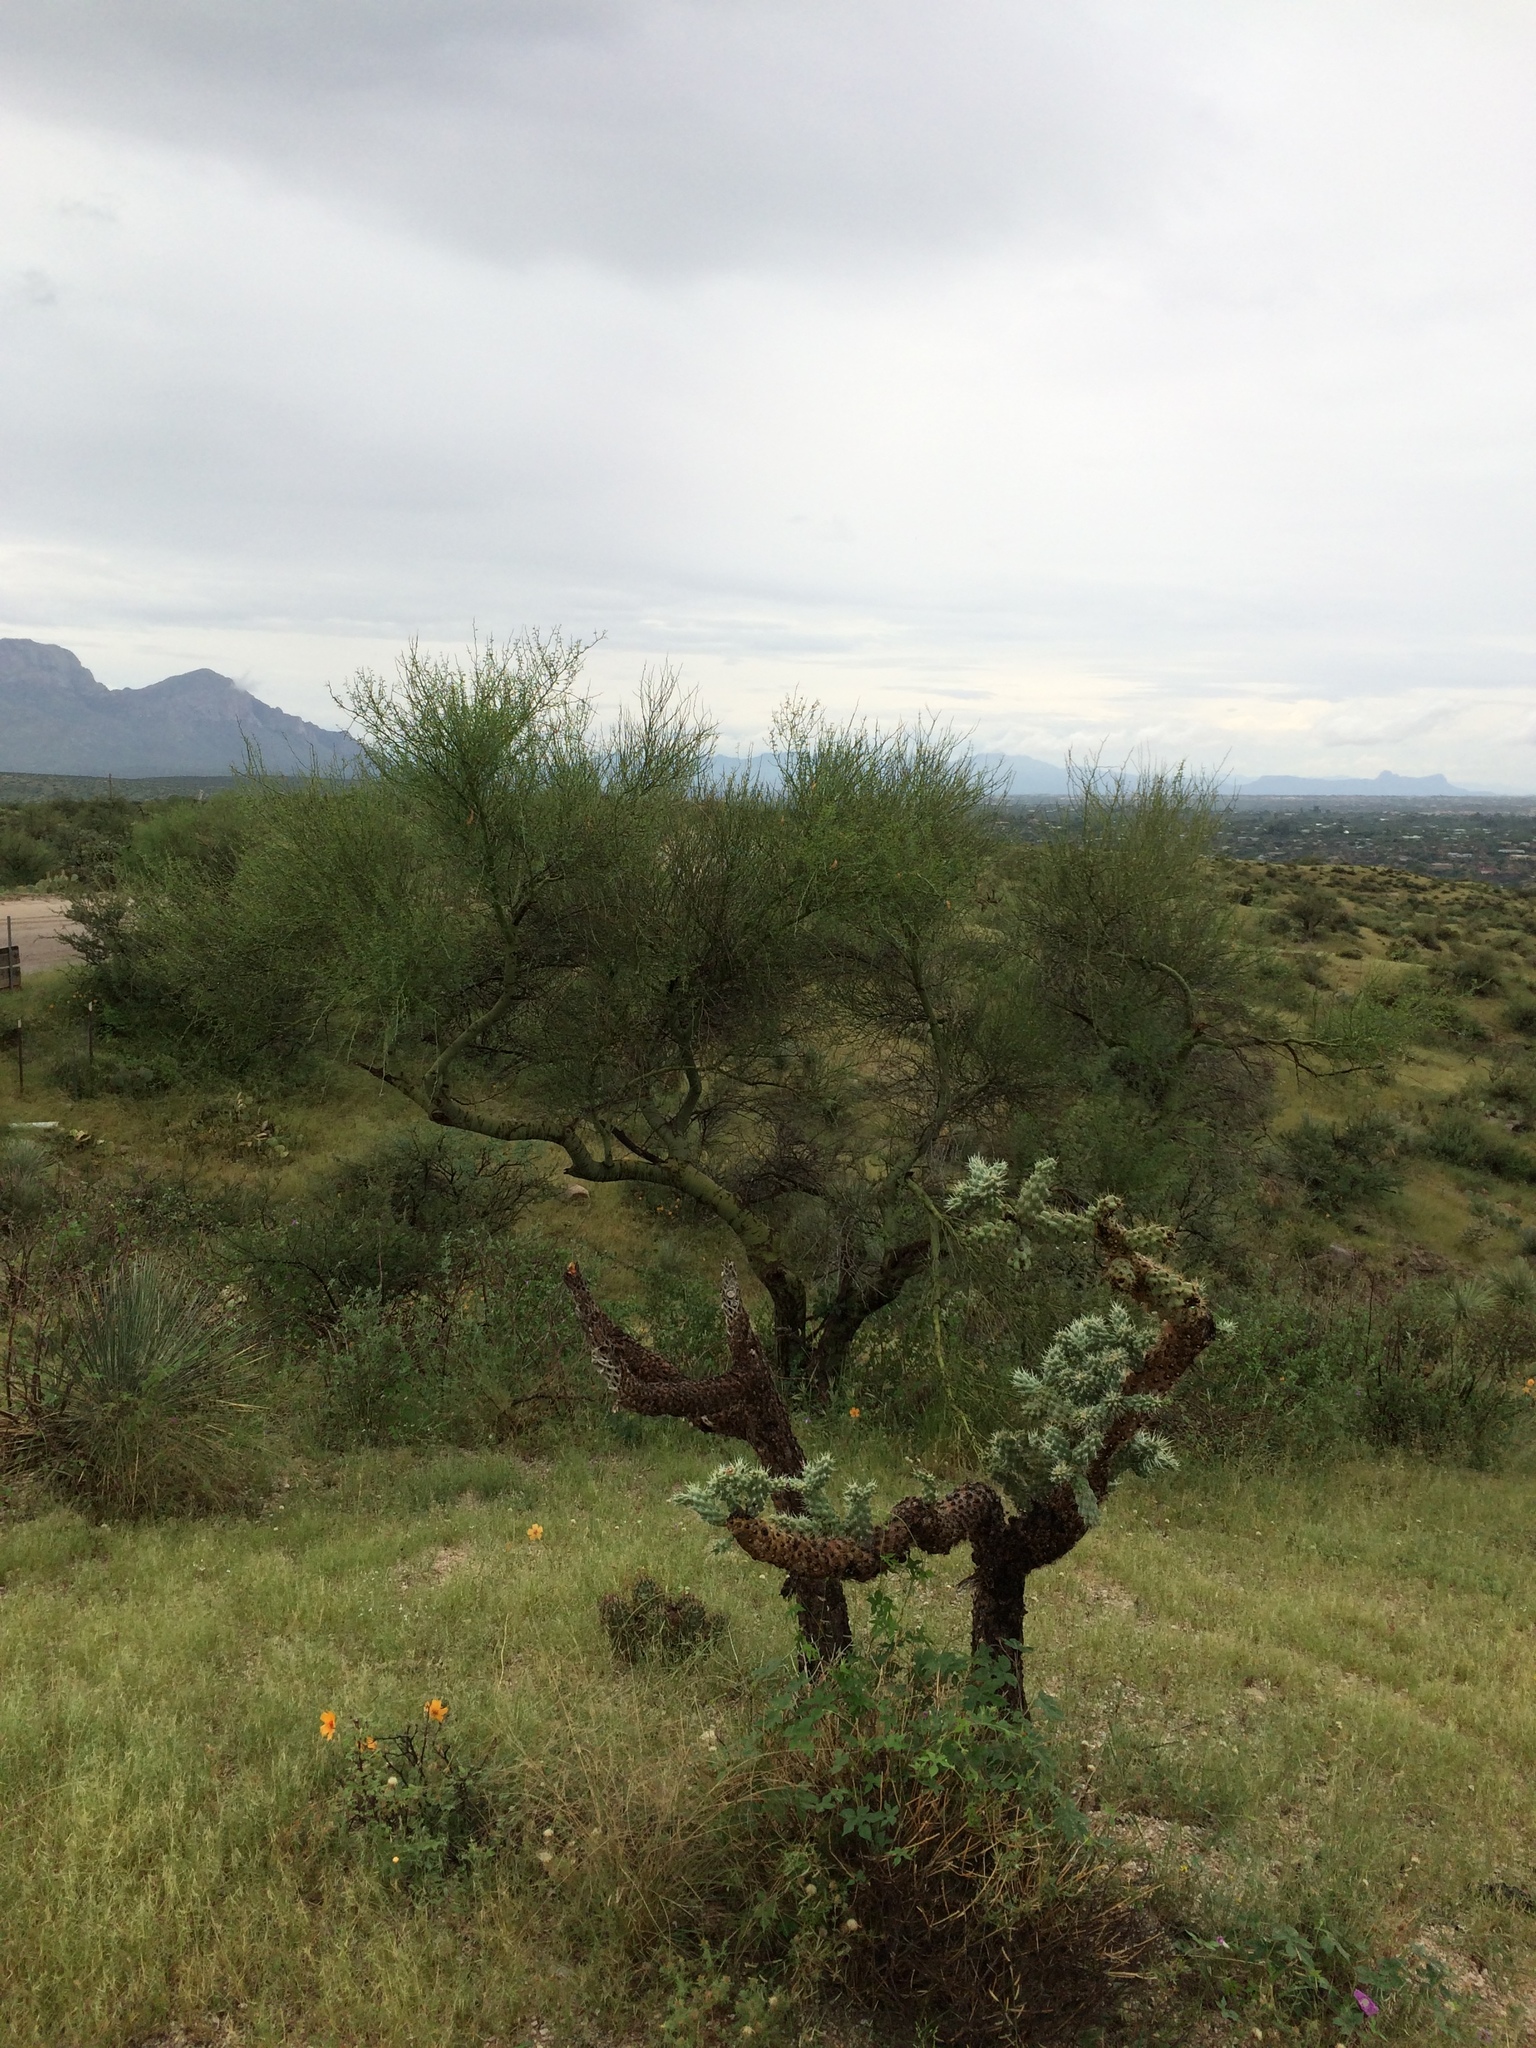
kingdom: Plantae
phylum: Tracheophyta
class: Magnoliopsida
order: Caryophyllales
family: Cactaceae
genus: Cylindropuntia
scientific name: Cylindropuntia fulgida
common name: Jumping cholla
